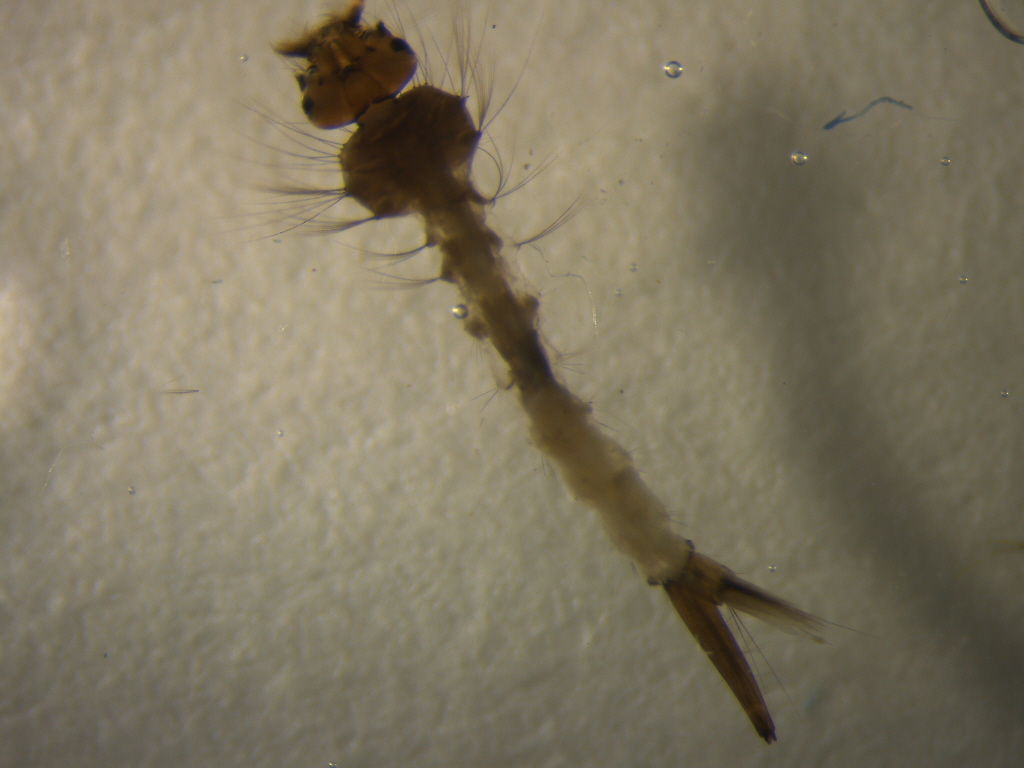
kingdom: Animalia
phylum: Arthropoda
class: Insecta
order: Diptera
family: Culicidae
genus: Culex
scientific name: Culex pervigilans
